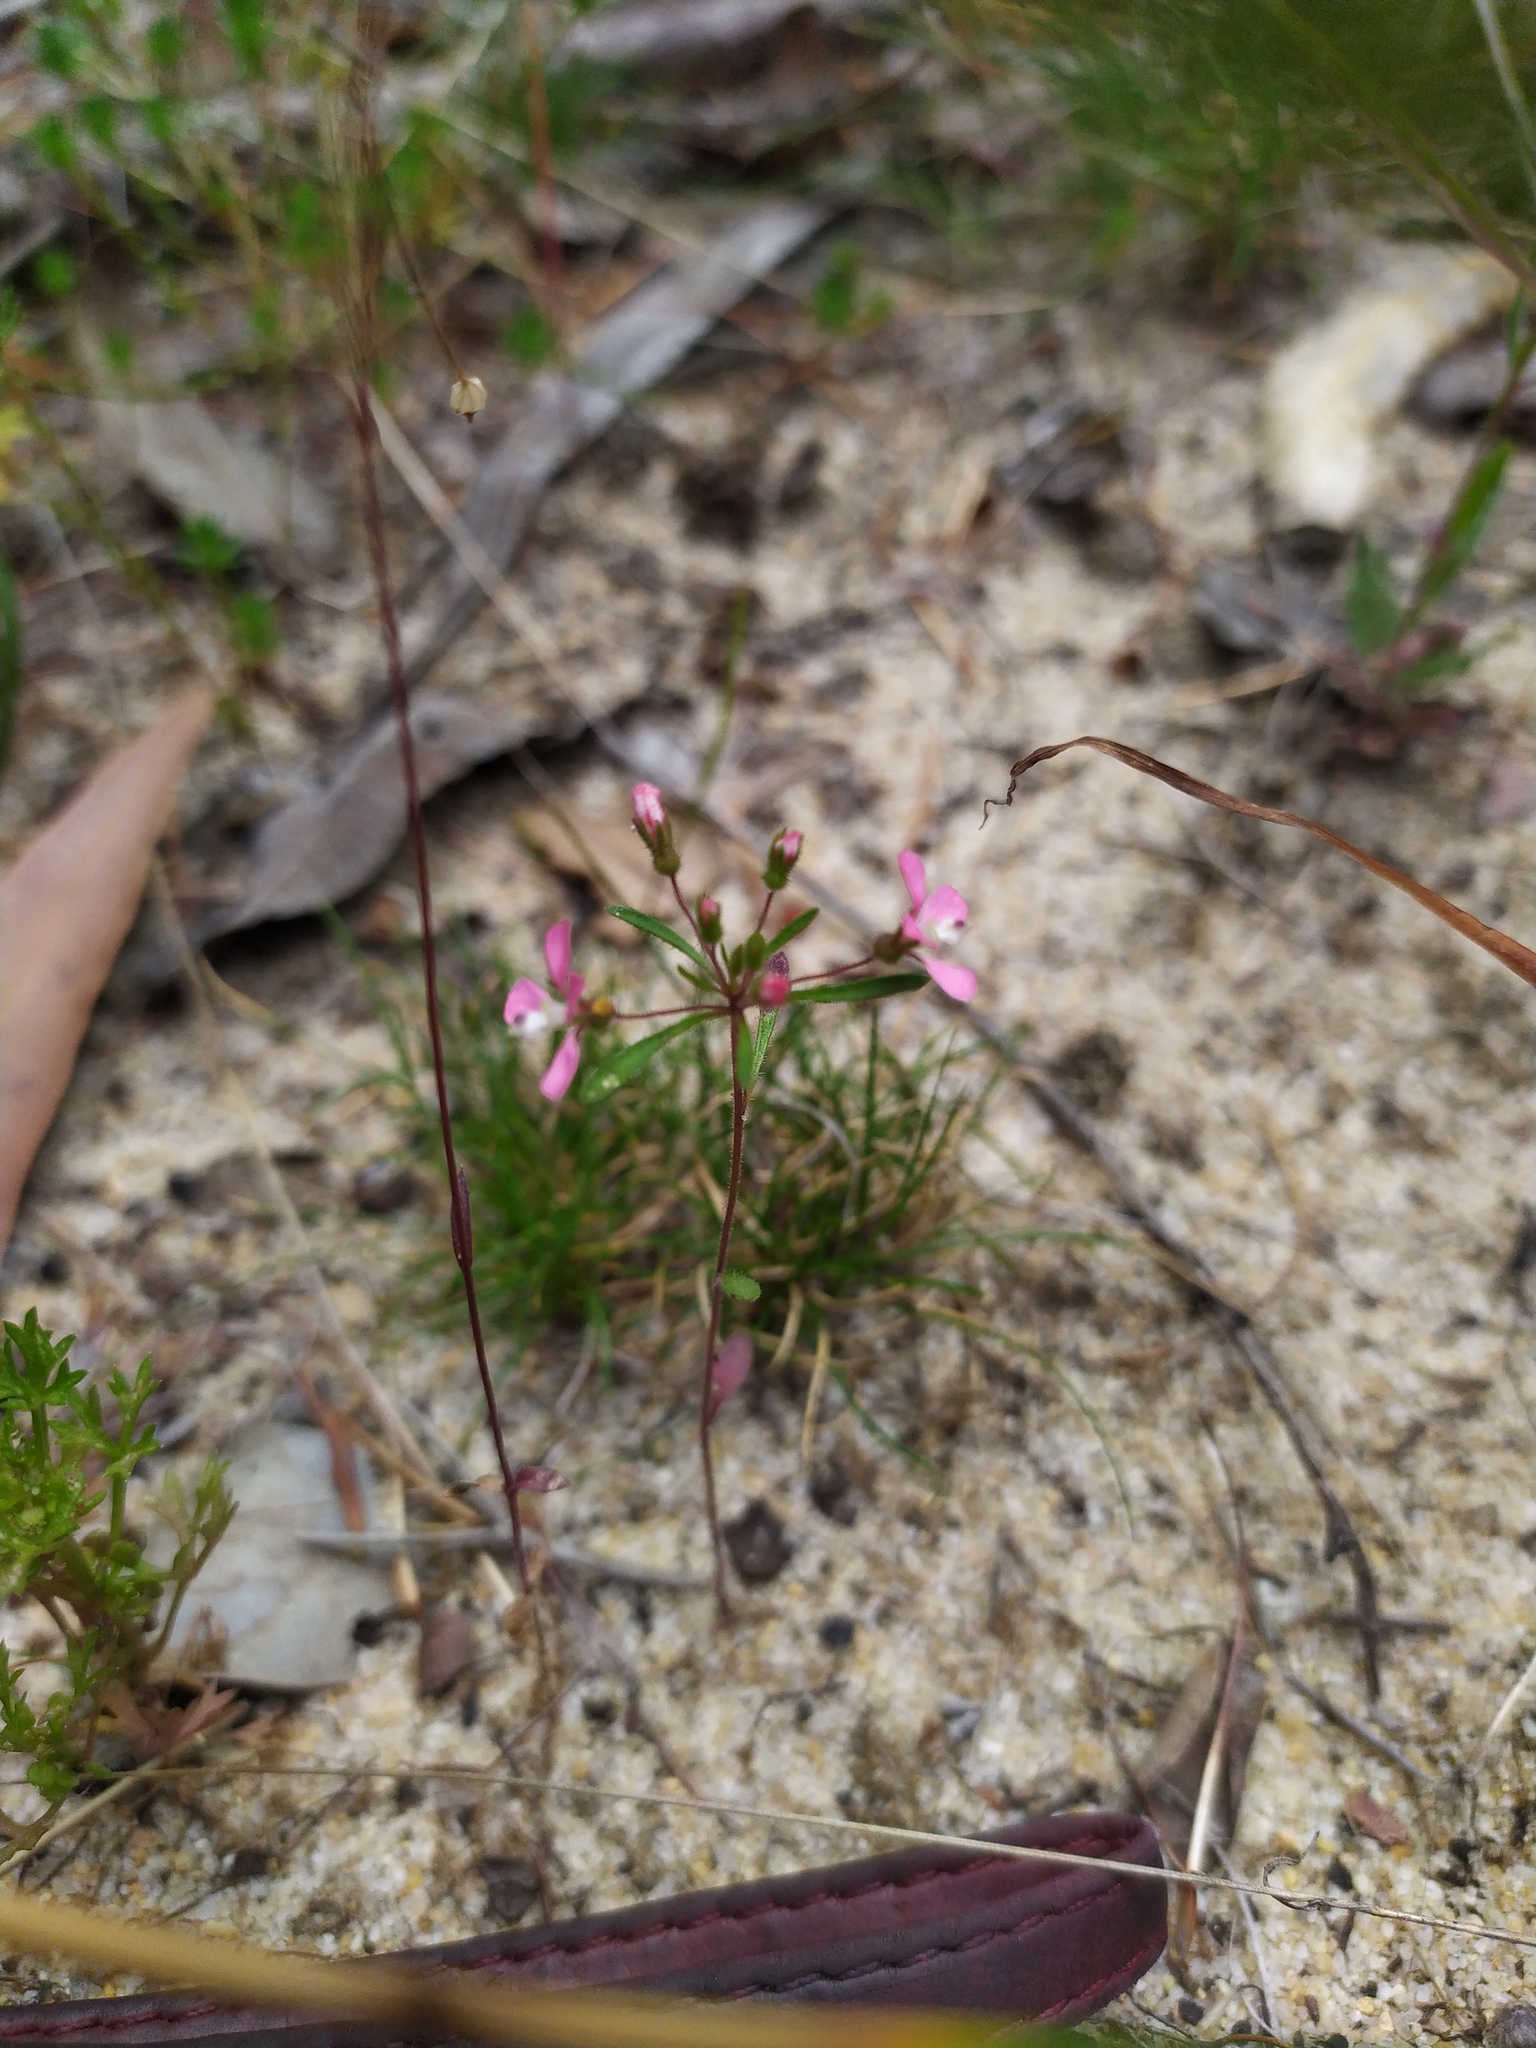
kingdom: Plantae
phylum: Tracheophyta
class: Magnoliopsida
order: Asterales
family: Stylidiaceae
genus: Levenhookia
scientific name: Levenhookia stipitata
